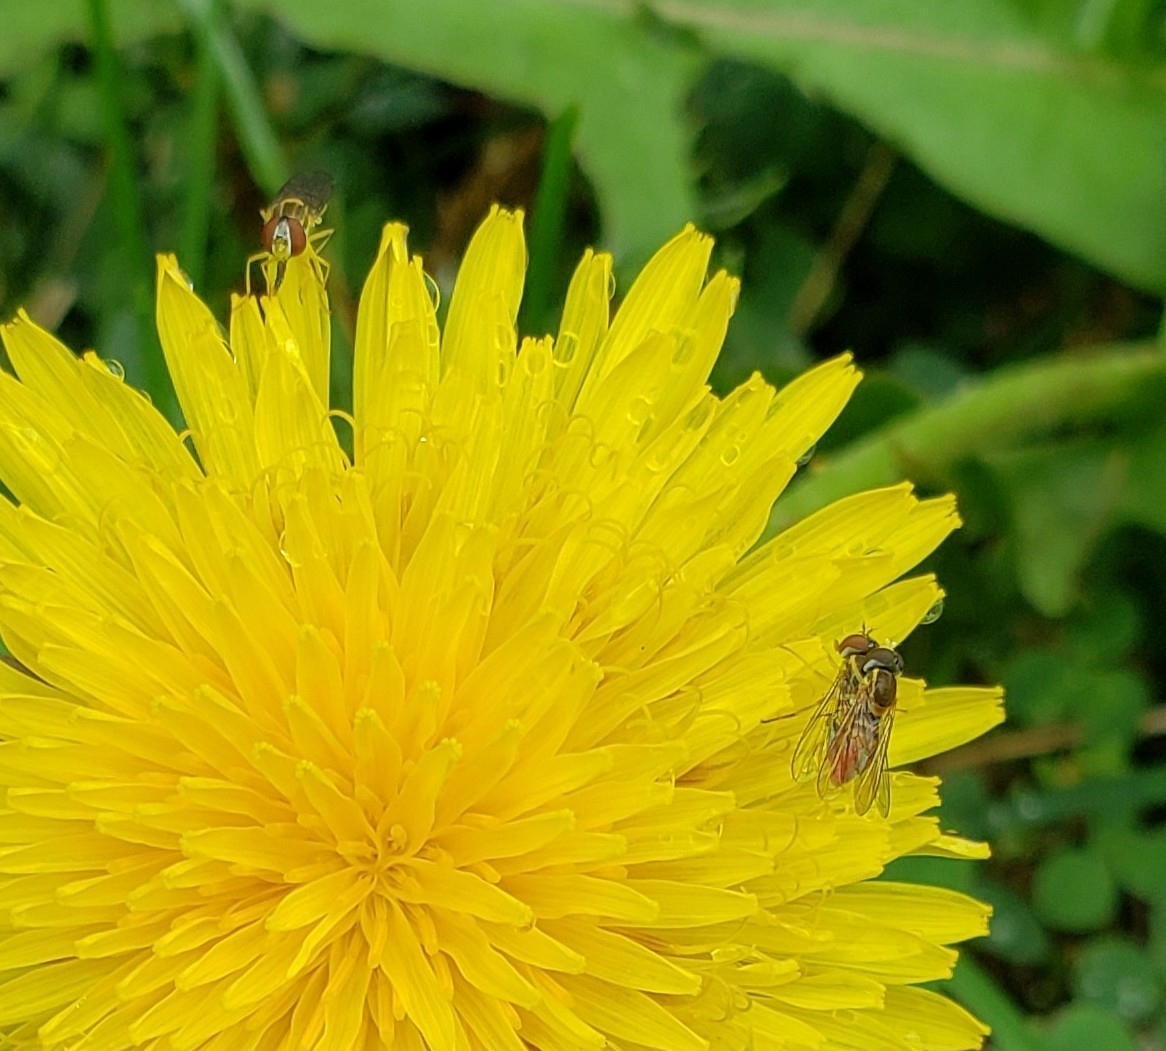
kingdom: Animalia
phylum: Arthropoda
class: Insecta
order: Diptera
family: Syrphidae
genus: Toxomerus
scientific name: Toxomerus marginatus
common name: Syrphid fly
